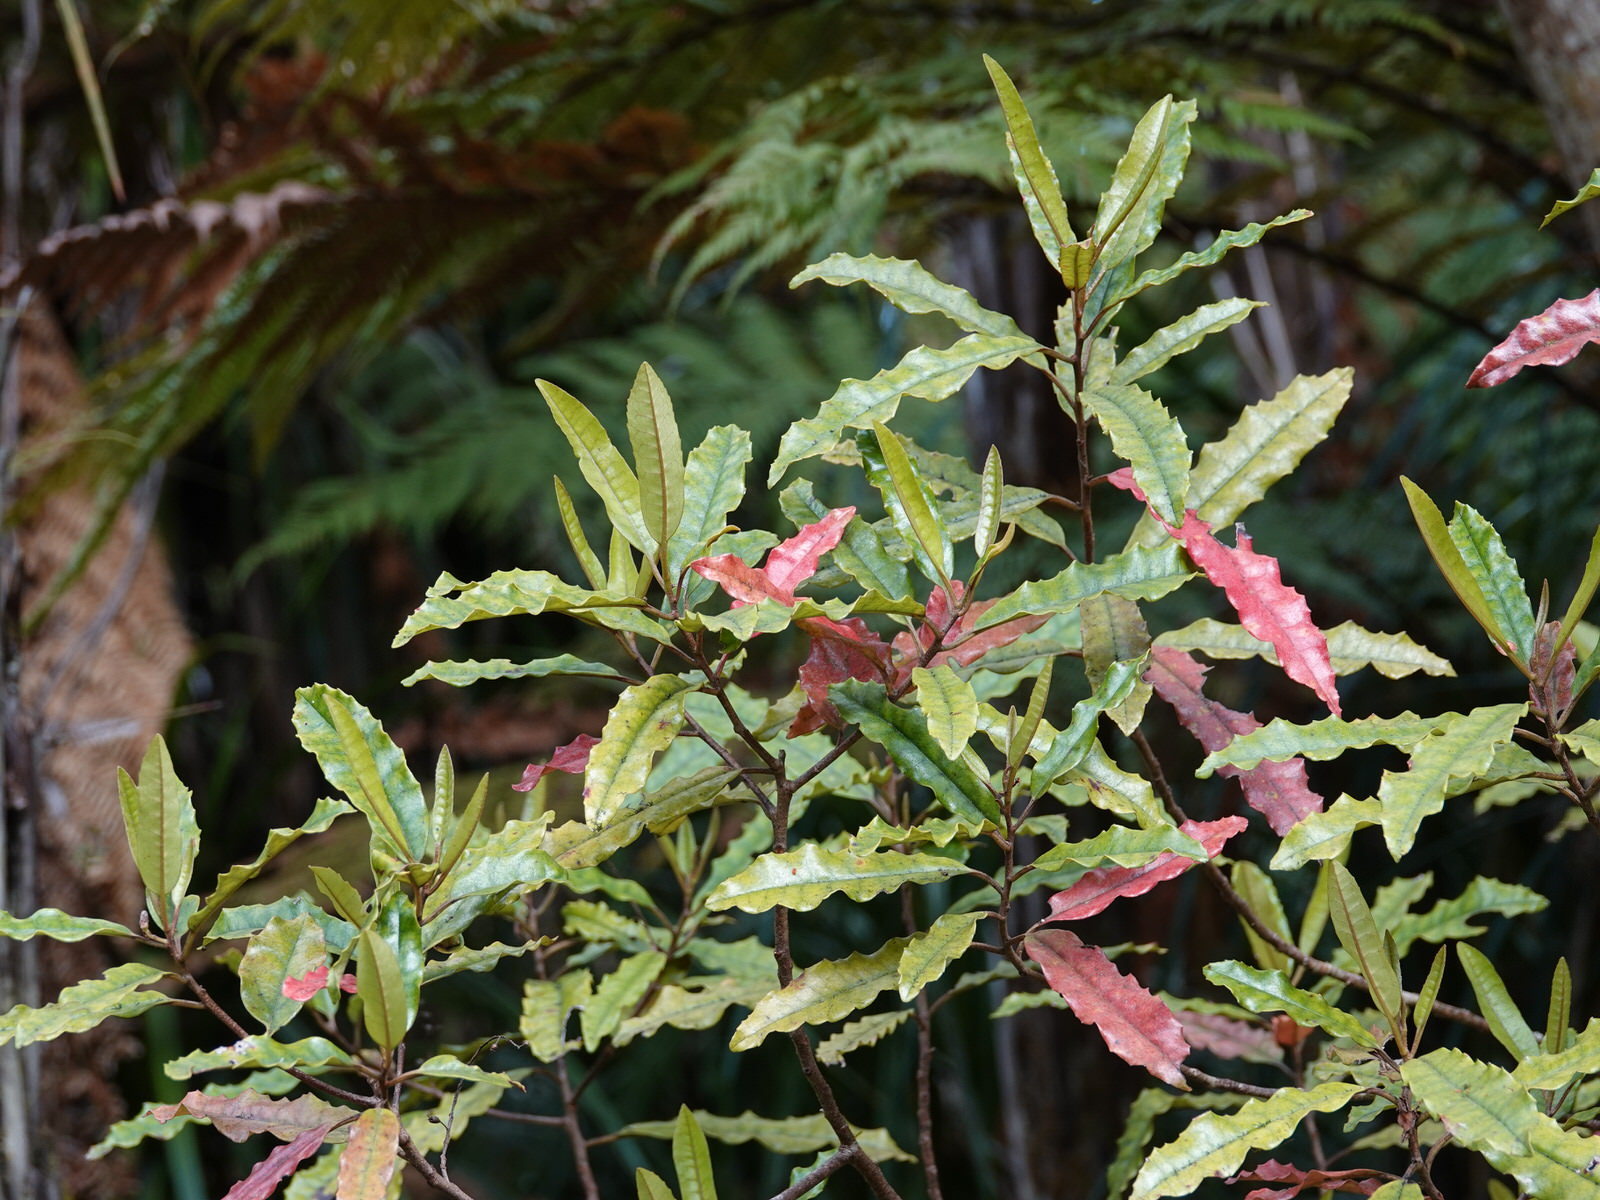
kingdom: Plantae
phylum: Tracheophyta
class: Magnoliopsida
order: Paracryphiales
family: Paracryphiaceae
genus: Quintinia
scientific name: Quintinia serrata
